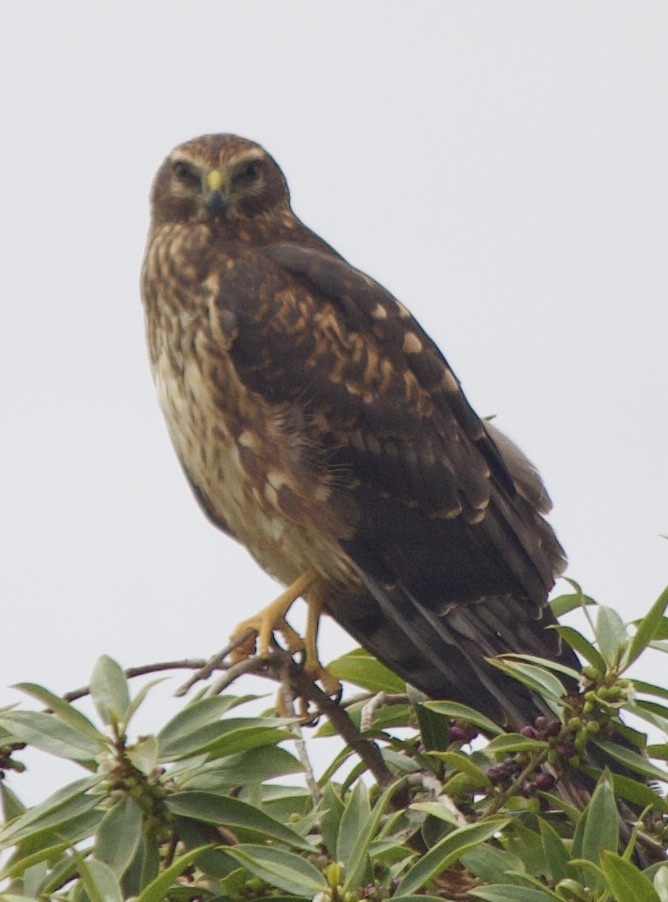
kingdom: Animalia
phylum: Chordata
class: Aves
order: Accipitriformes
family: Accipitridae
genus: Circus
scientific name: Circus cinereus
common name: Cinereous harrier
